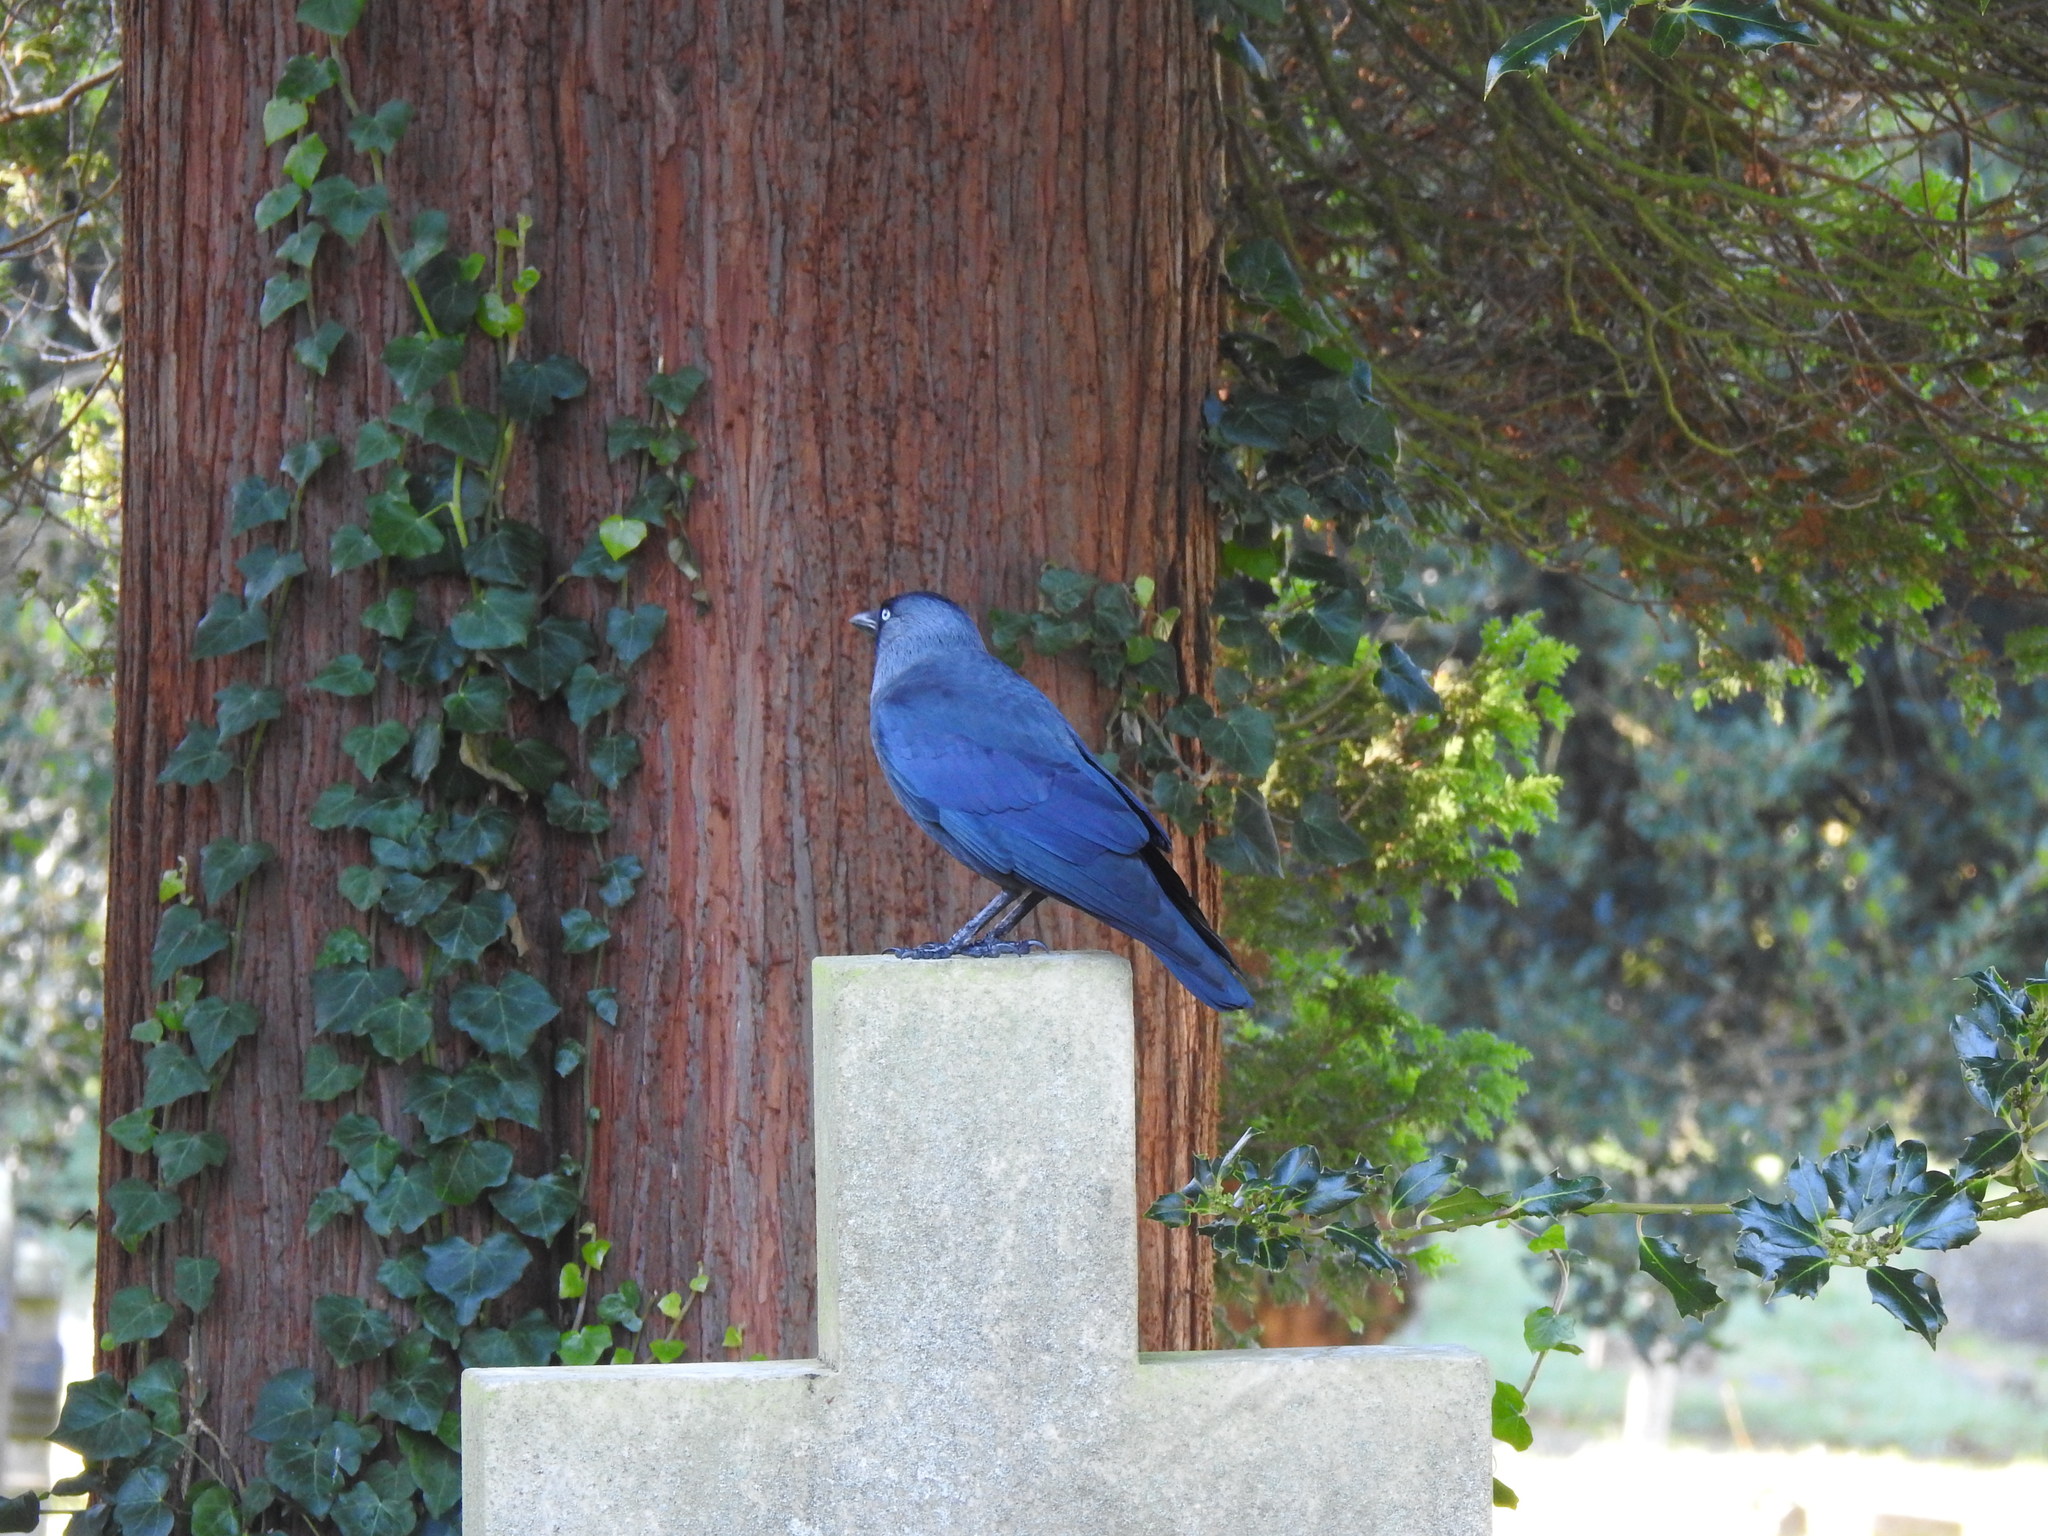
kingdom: Animalia
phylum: Chordata
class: Aves
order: Passeriformes
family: Corvidae
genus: Coloeus
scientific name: Coloeus monedula
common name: Western jackdaw
